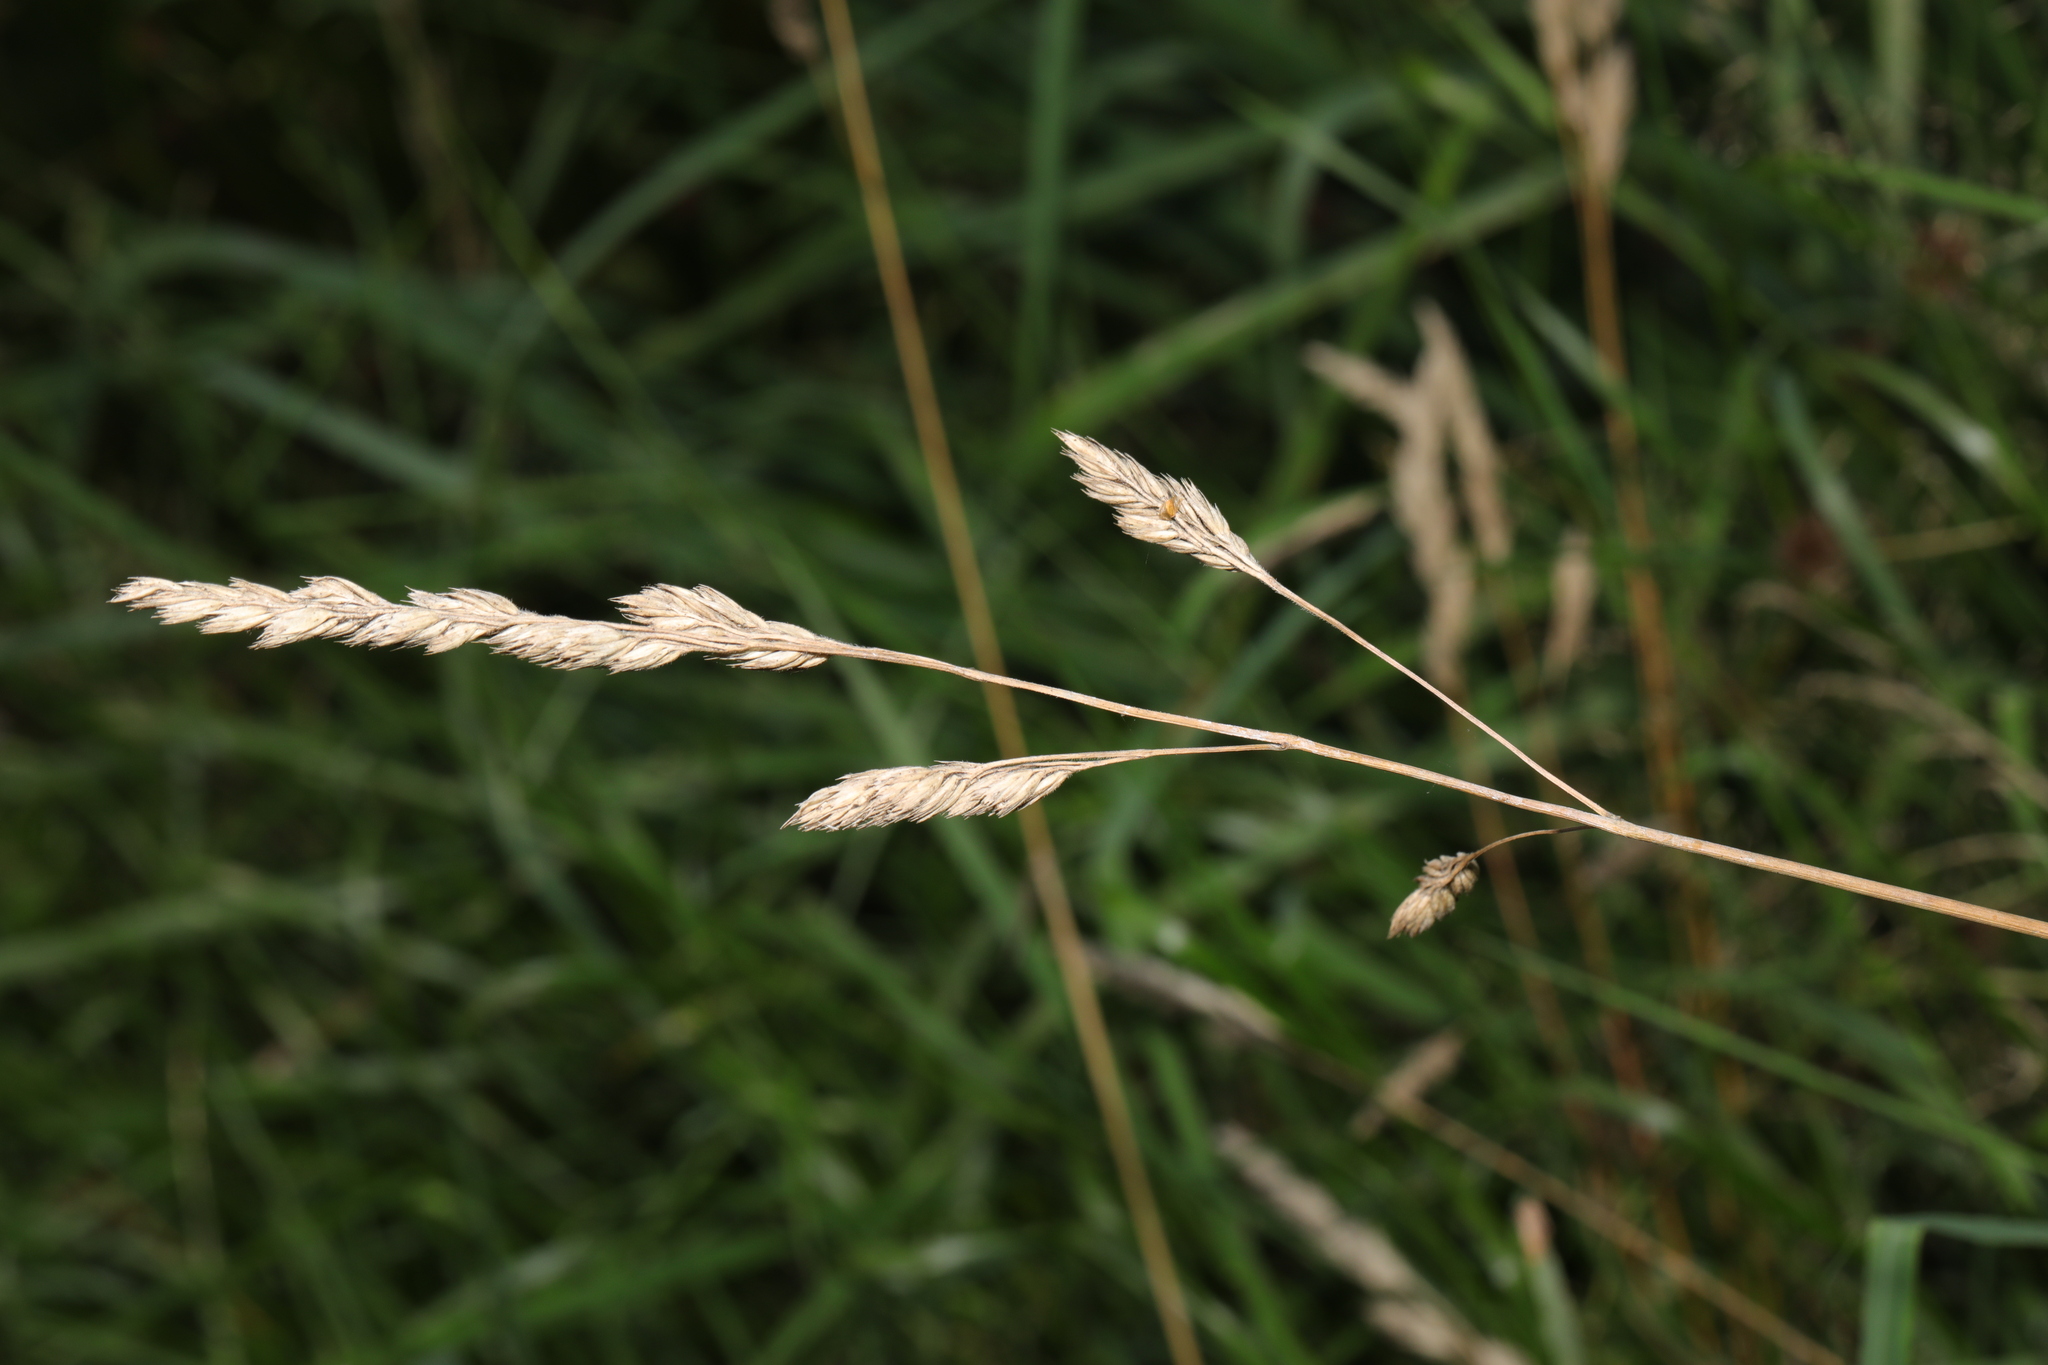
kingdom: Plantae
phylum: Tracheophyta
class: Liliopsida
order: Poales
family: Poaceae
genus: Dactylis
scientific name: Dactylis glomerata
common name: Orchardgrass
